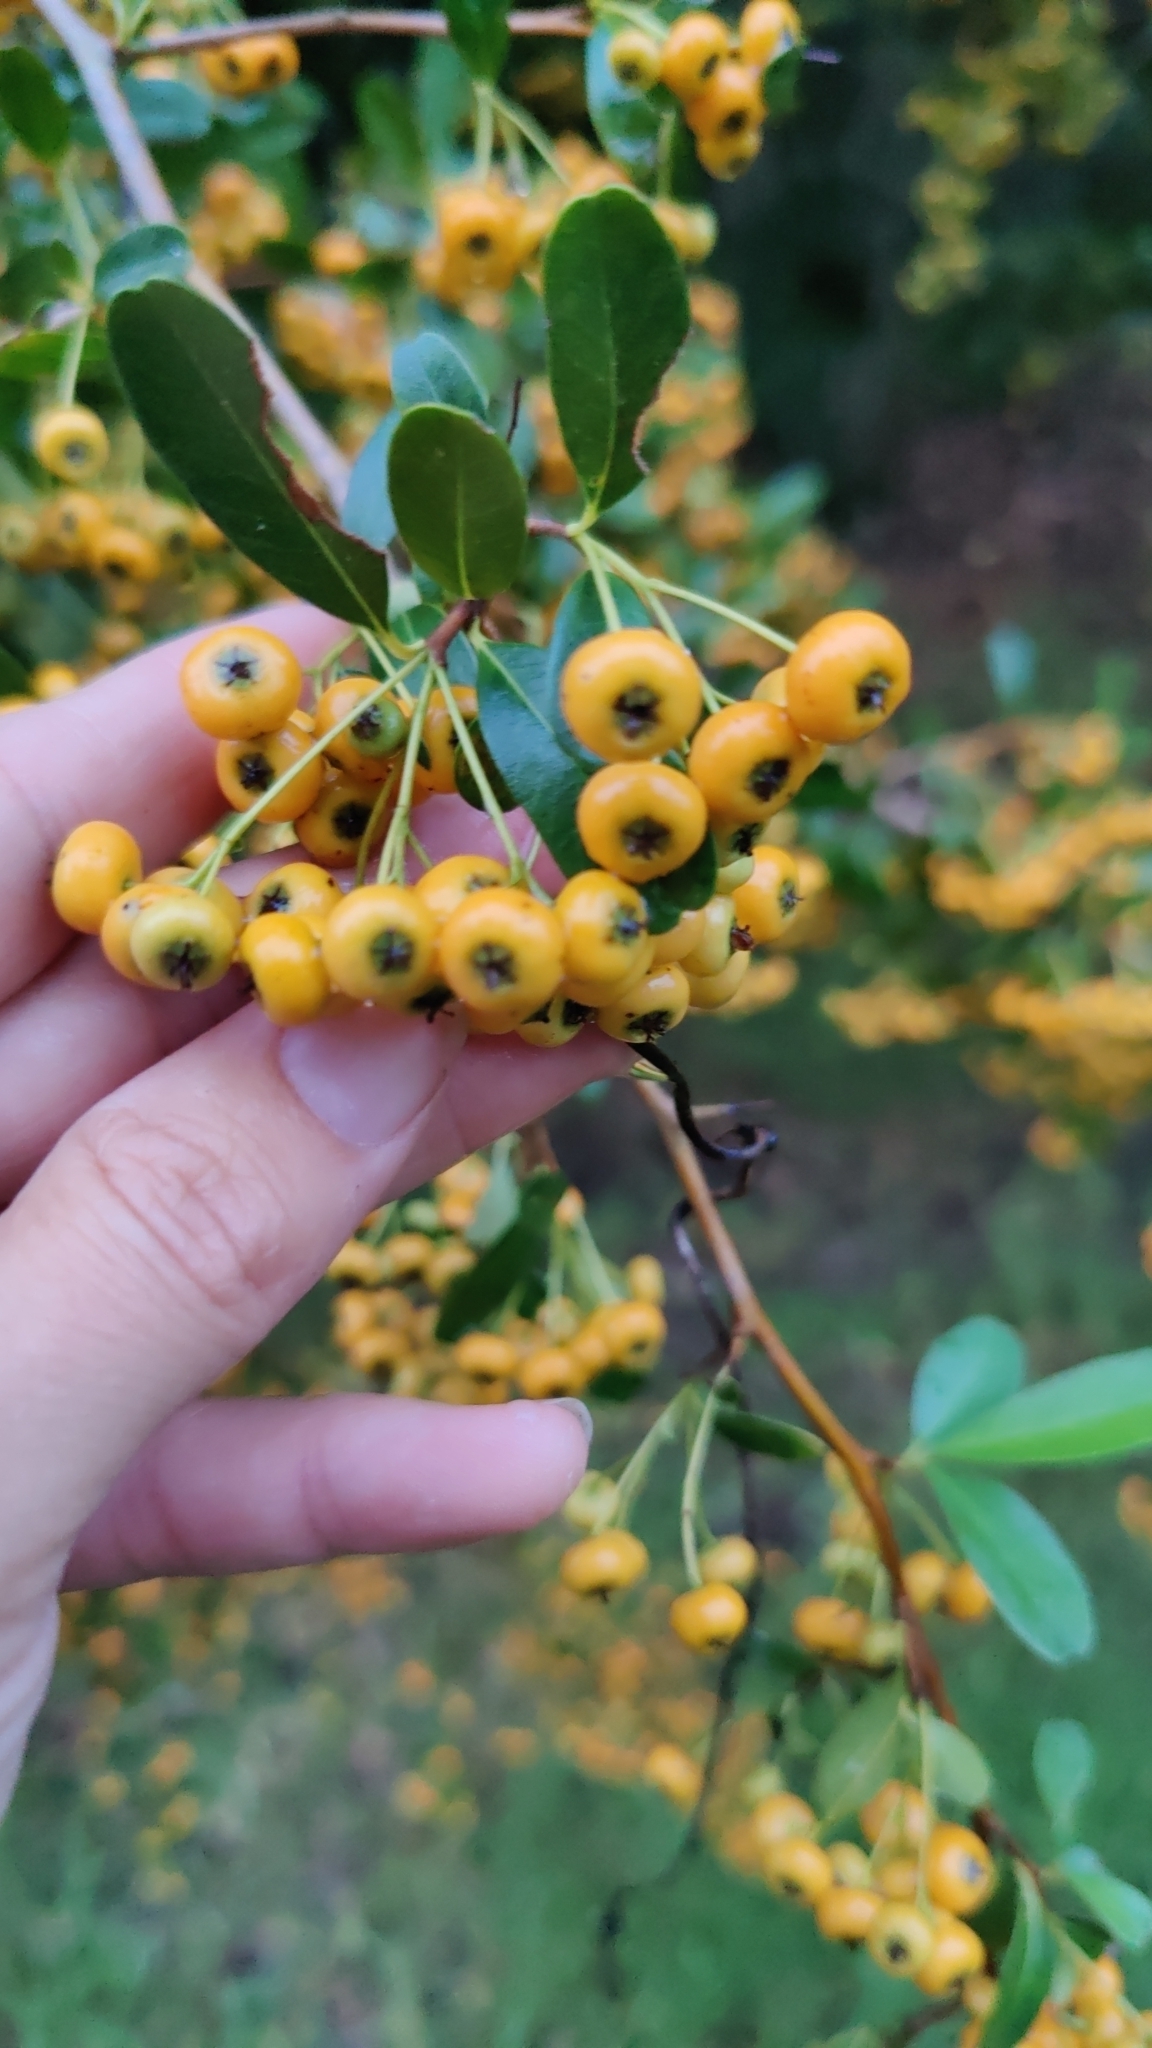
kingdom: Plantae
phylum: Tracheophyta
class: Magnoliopsida
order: Rosales
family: Rosaceae
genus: Pyracantha
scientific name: Pyracantha koidzumii
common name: Formosa firethorn
